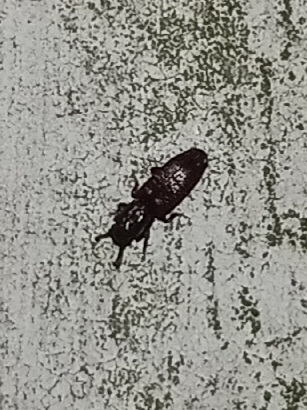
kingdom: Animalia
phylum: Arthropoda
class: Insecta
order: Coleoptera
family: Zopheridae
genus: Pycnomerus
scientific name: Pycnomerus sulcicollis
